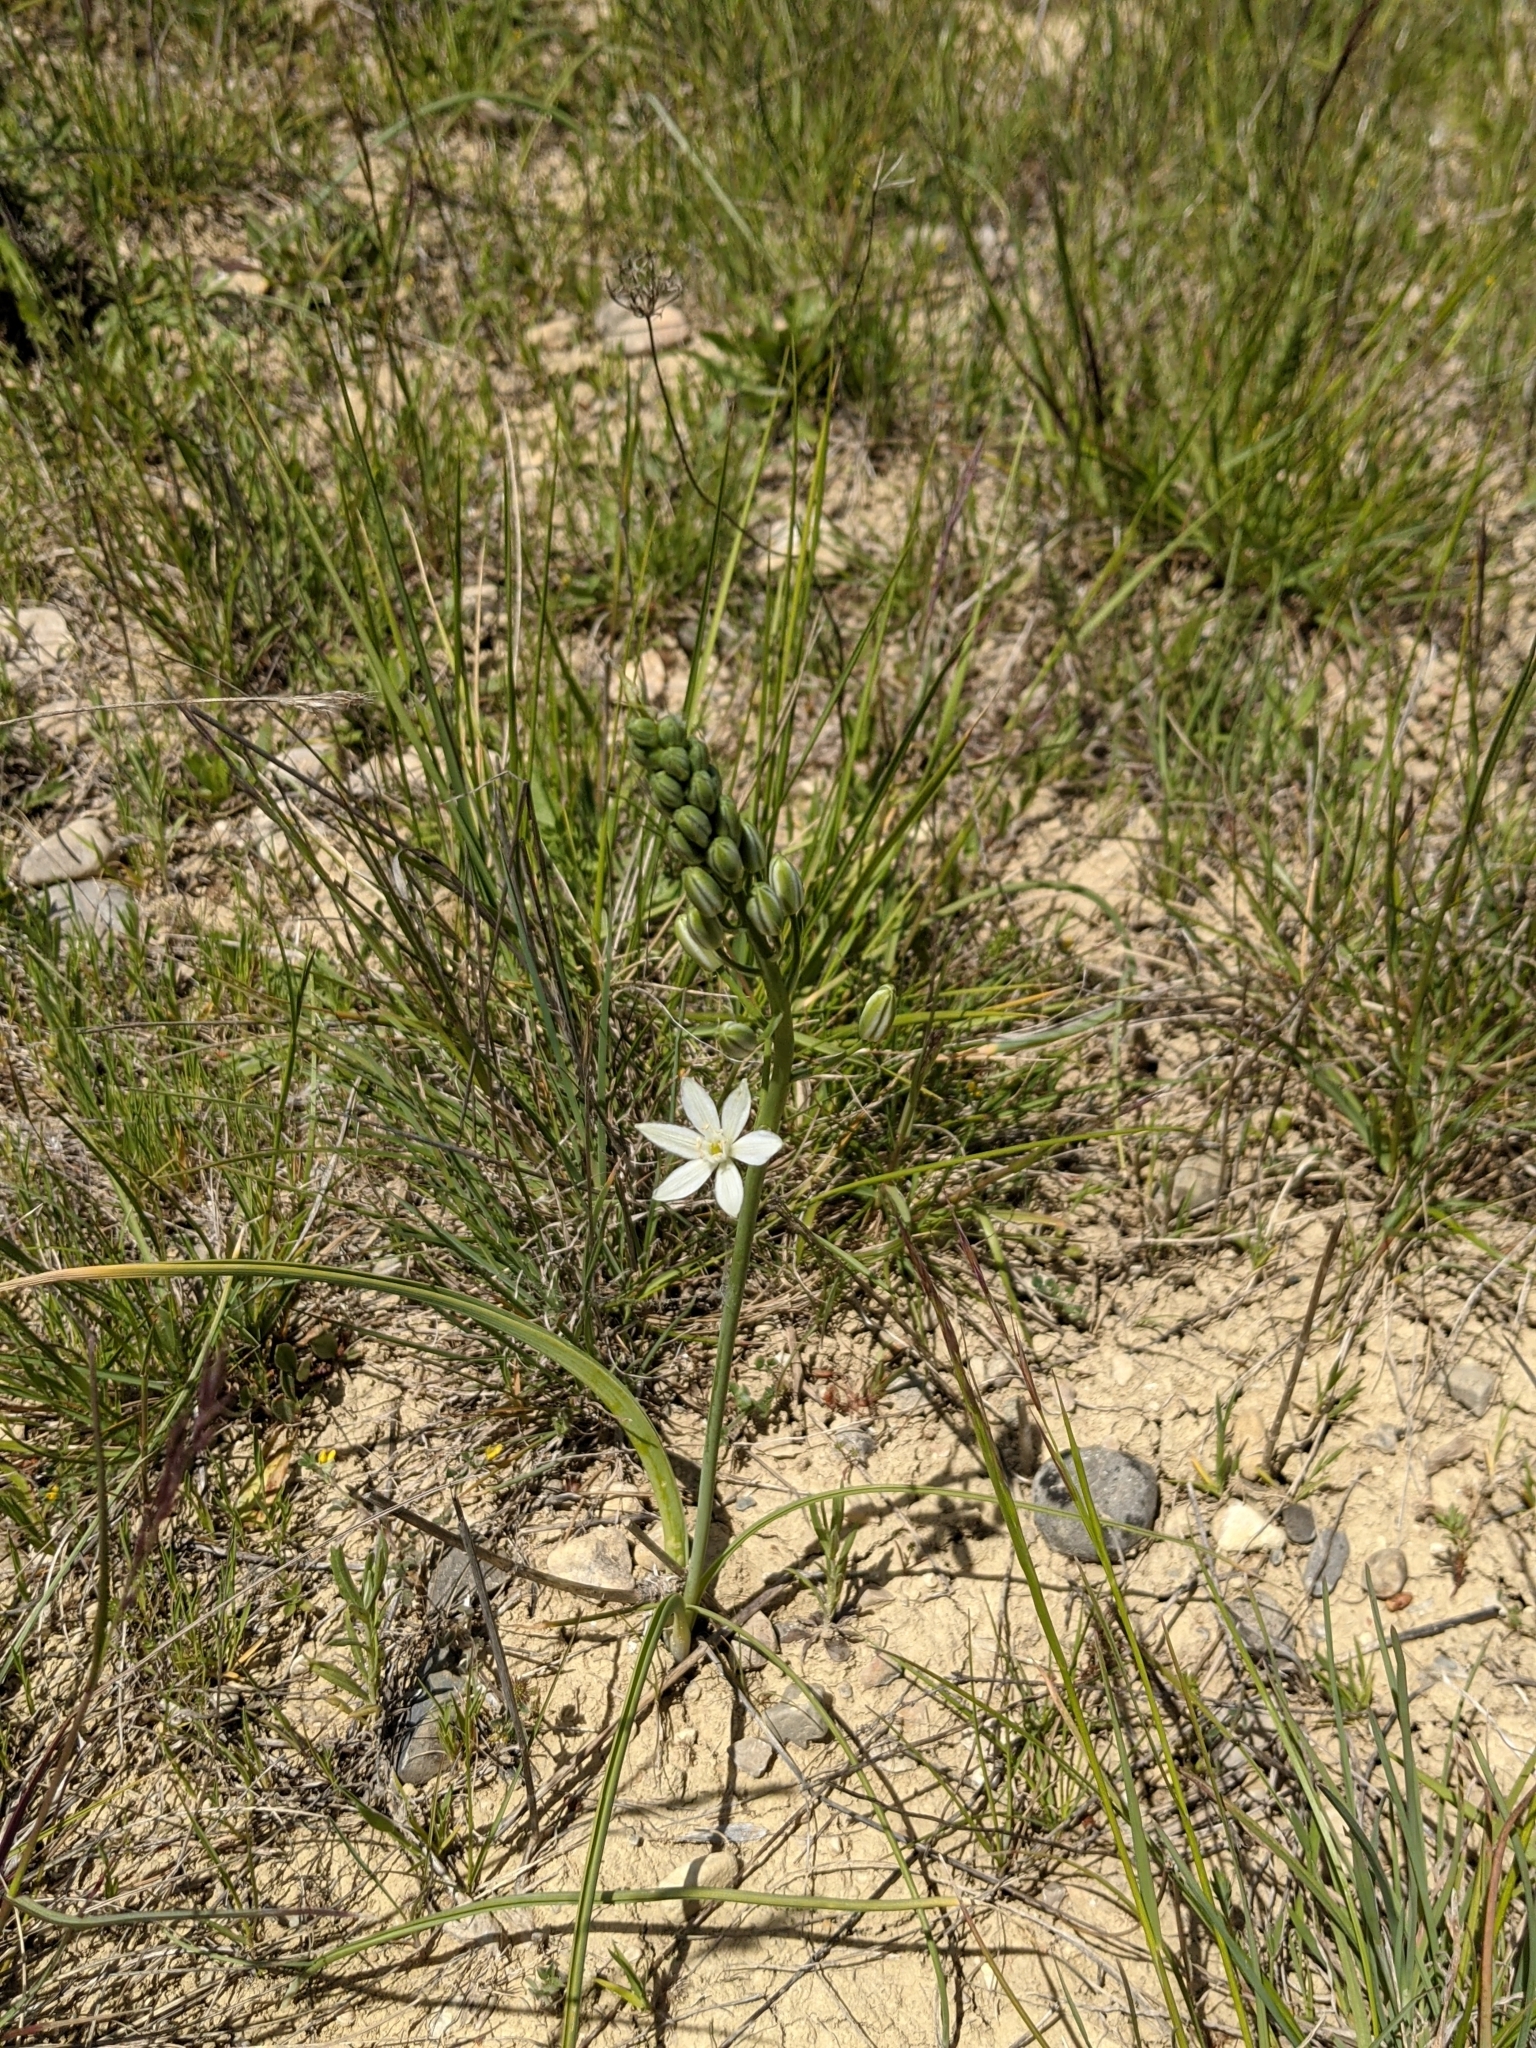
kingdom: Plantae
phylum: Tracheophyta
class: Liliopsida
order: Asparagales
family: Asparagaceae
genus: Ornithogalum
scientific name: Ornithogalum narbonense
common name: Bath-asparagus
